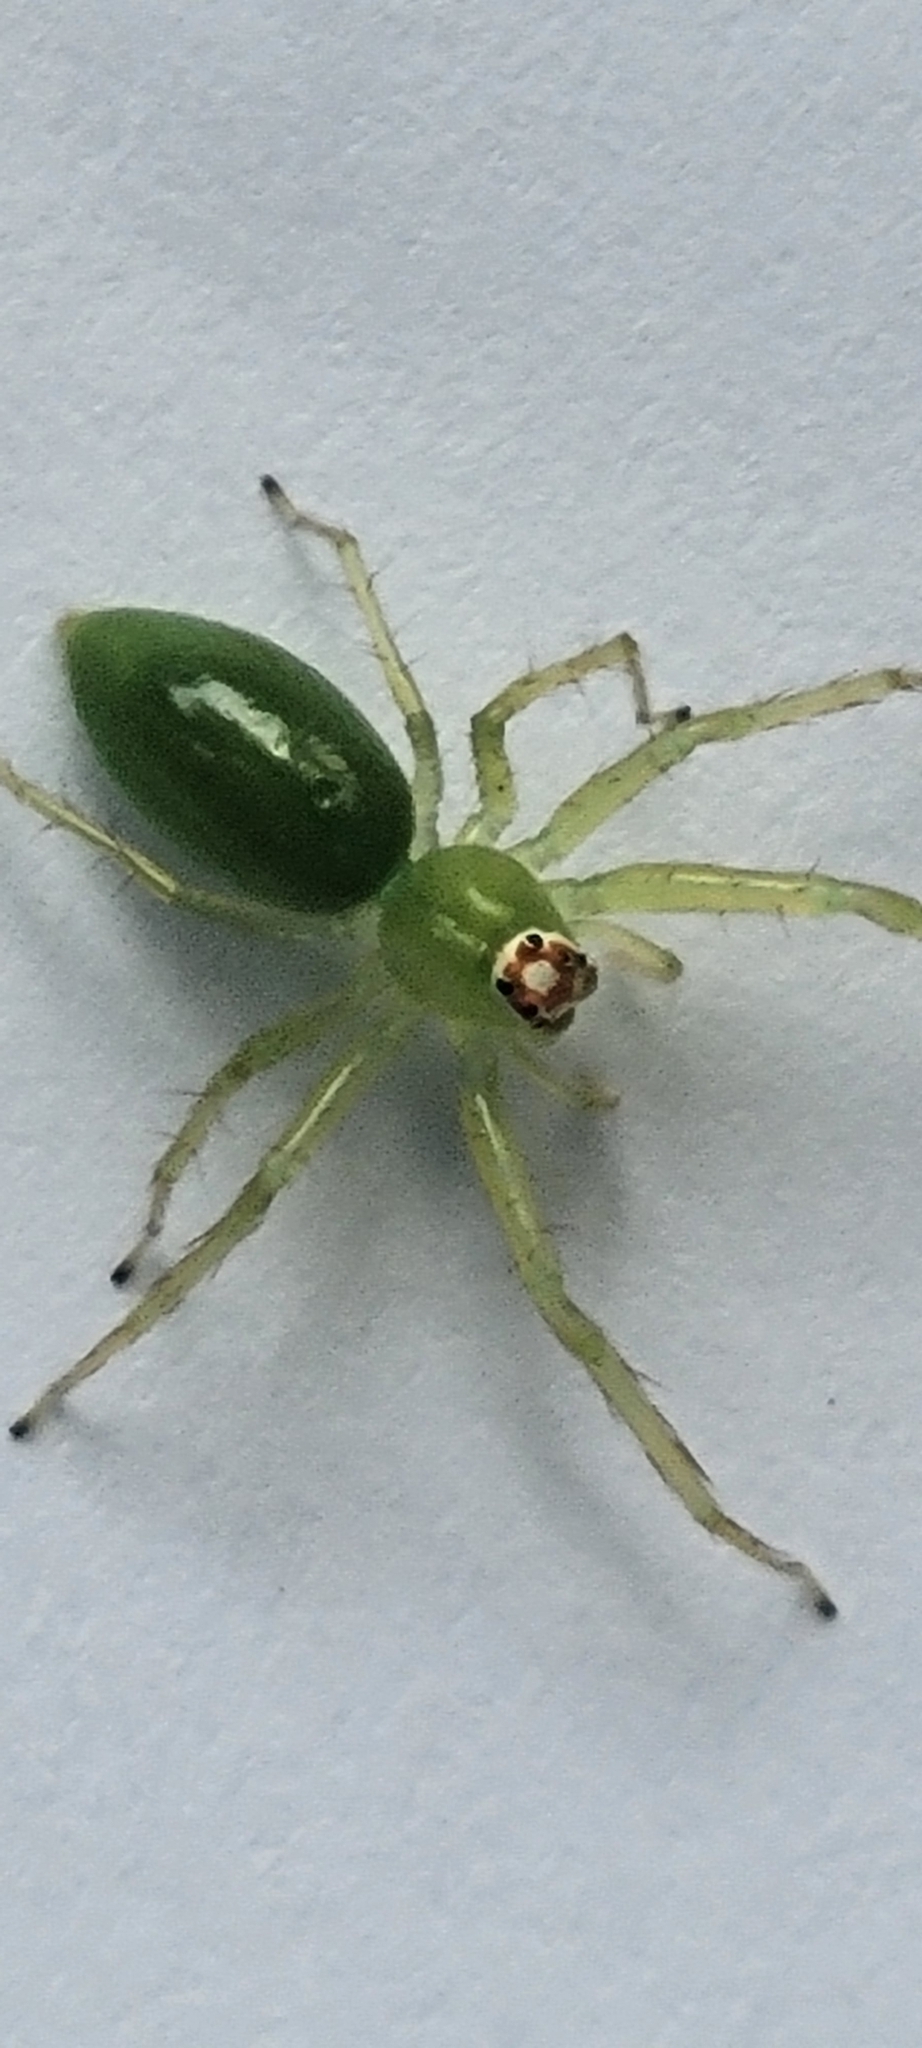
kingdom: Animalia
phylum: Arthropoda
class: Arachnida
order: Araneae
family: Salticidae
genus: Lyssomanes
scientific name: Lyssomanes viridis
